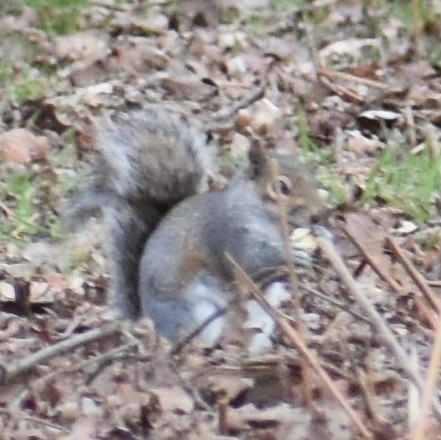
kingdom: Animalia
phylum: Chordata
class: Mammalia
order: Rodentia
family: Sciuridae
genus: Sciurus
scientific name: Sciurus carolinensis
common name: Eastern gray squirrel
